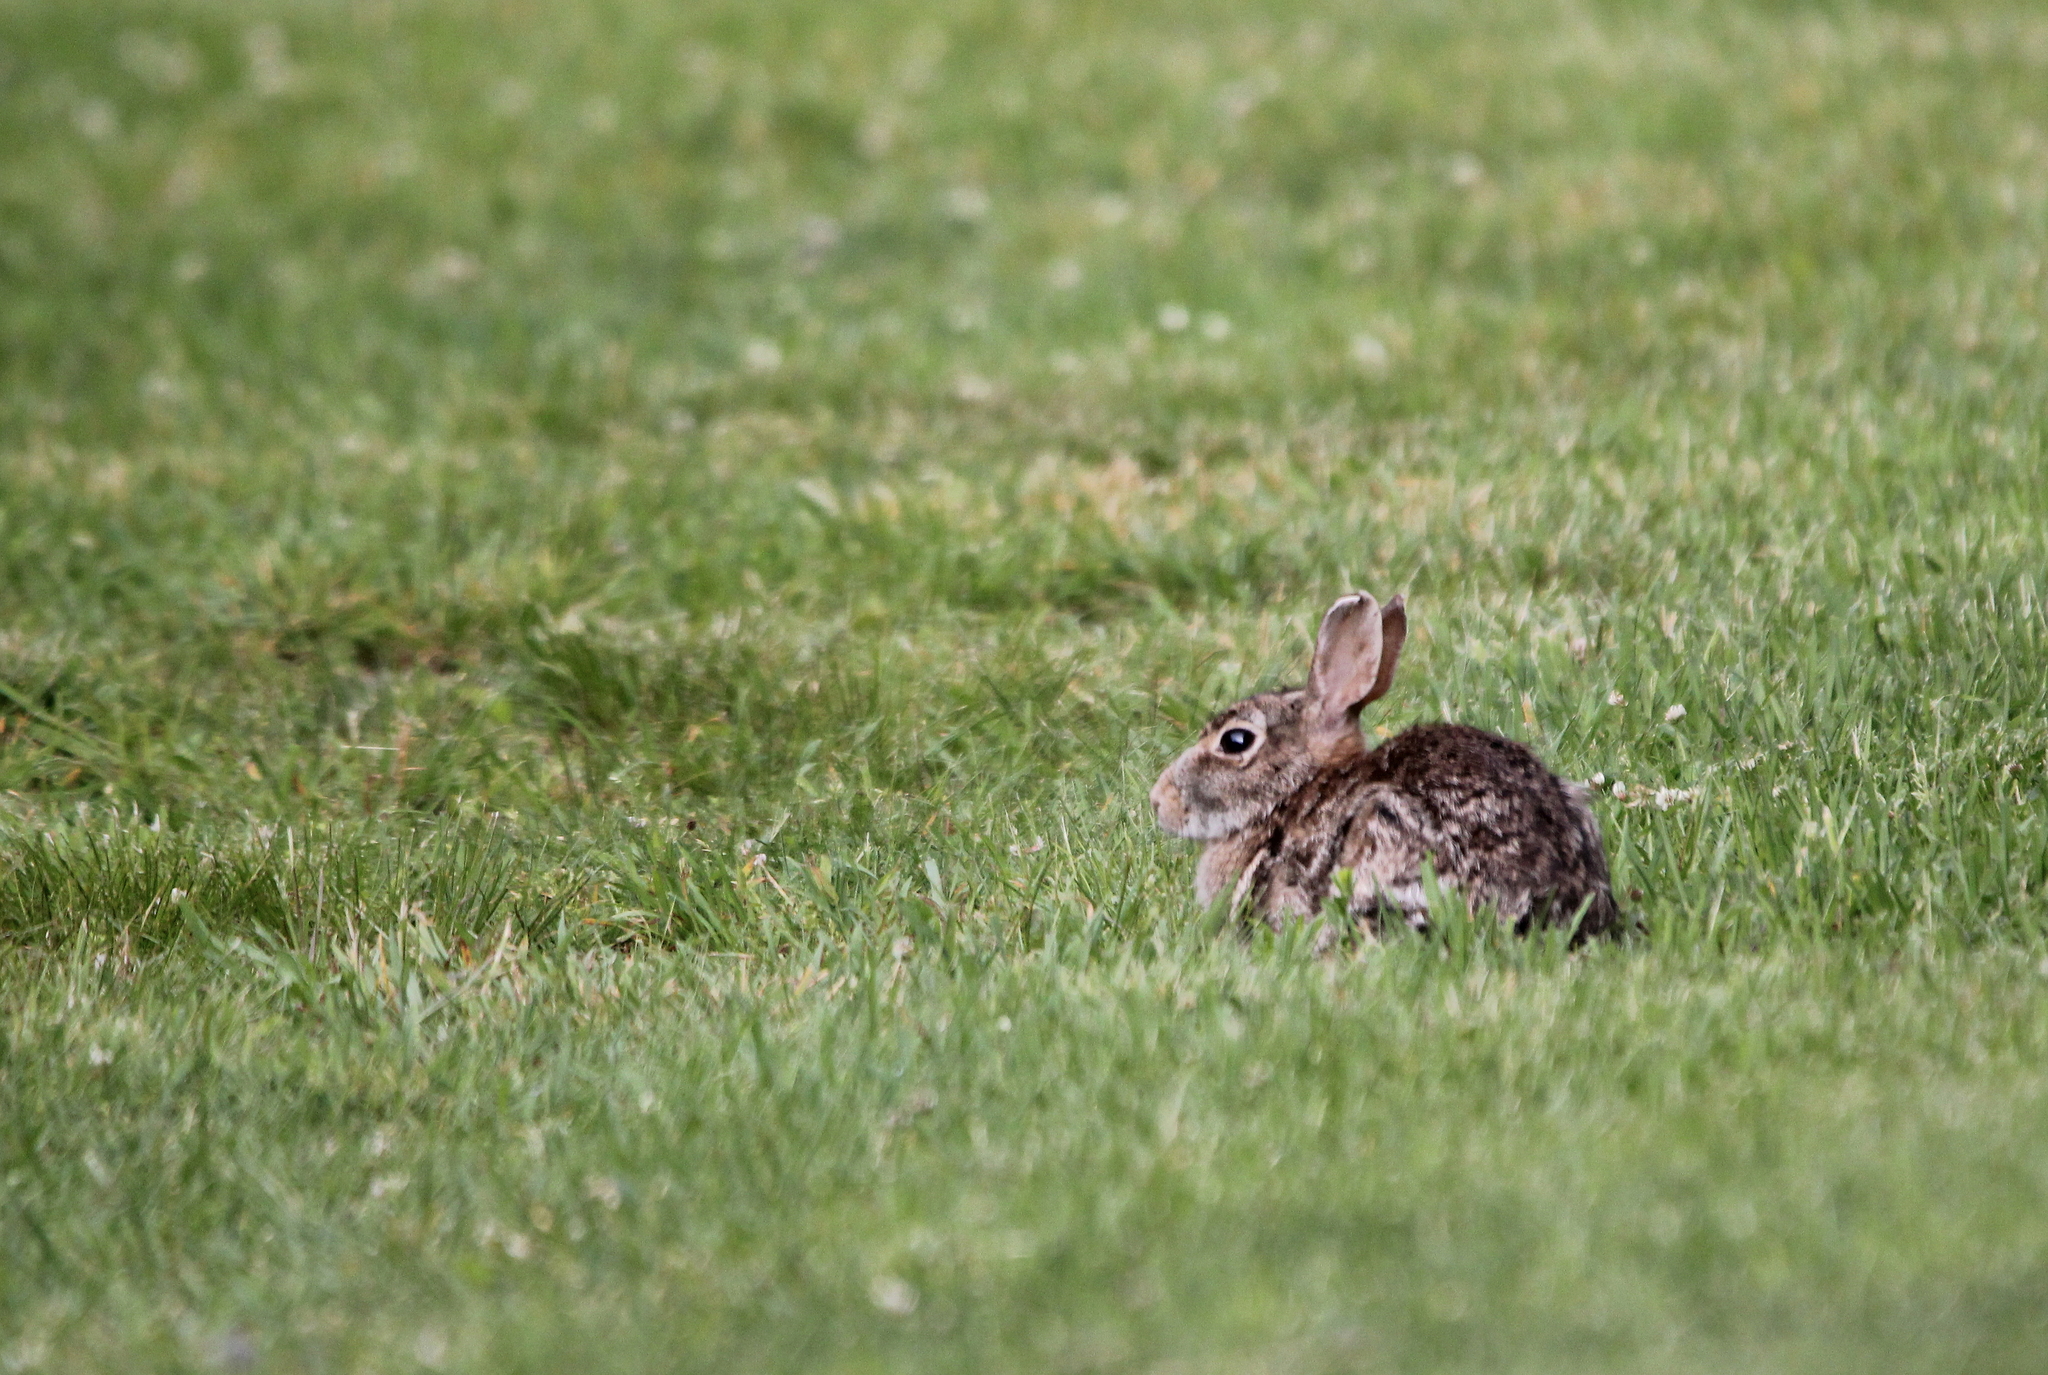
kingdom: Animalia
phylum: Chordata
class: Mammalia
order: Lagomorpha
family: Leporidae
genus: Sylvilagus
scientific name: Sylvilagus floridanus
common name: Eastern cottontail
